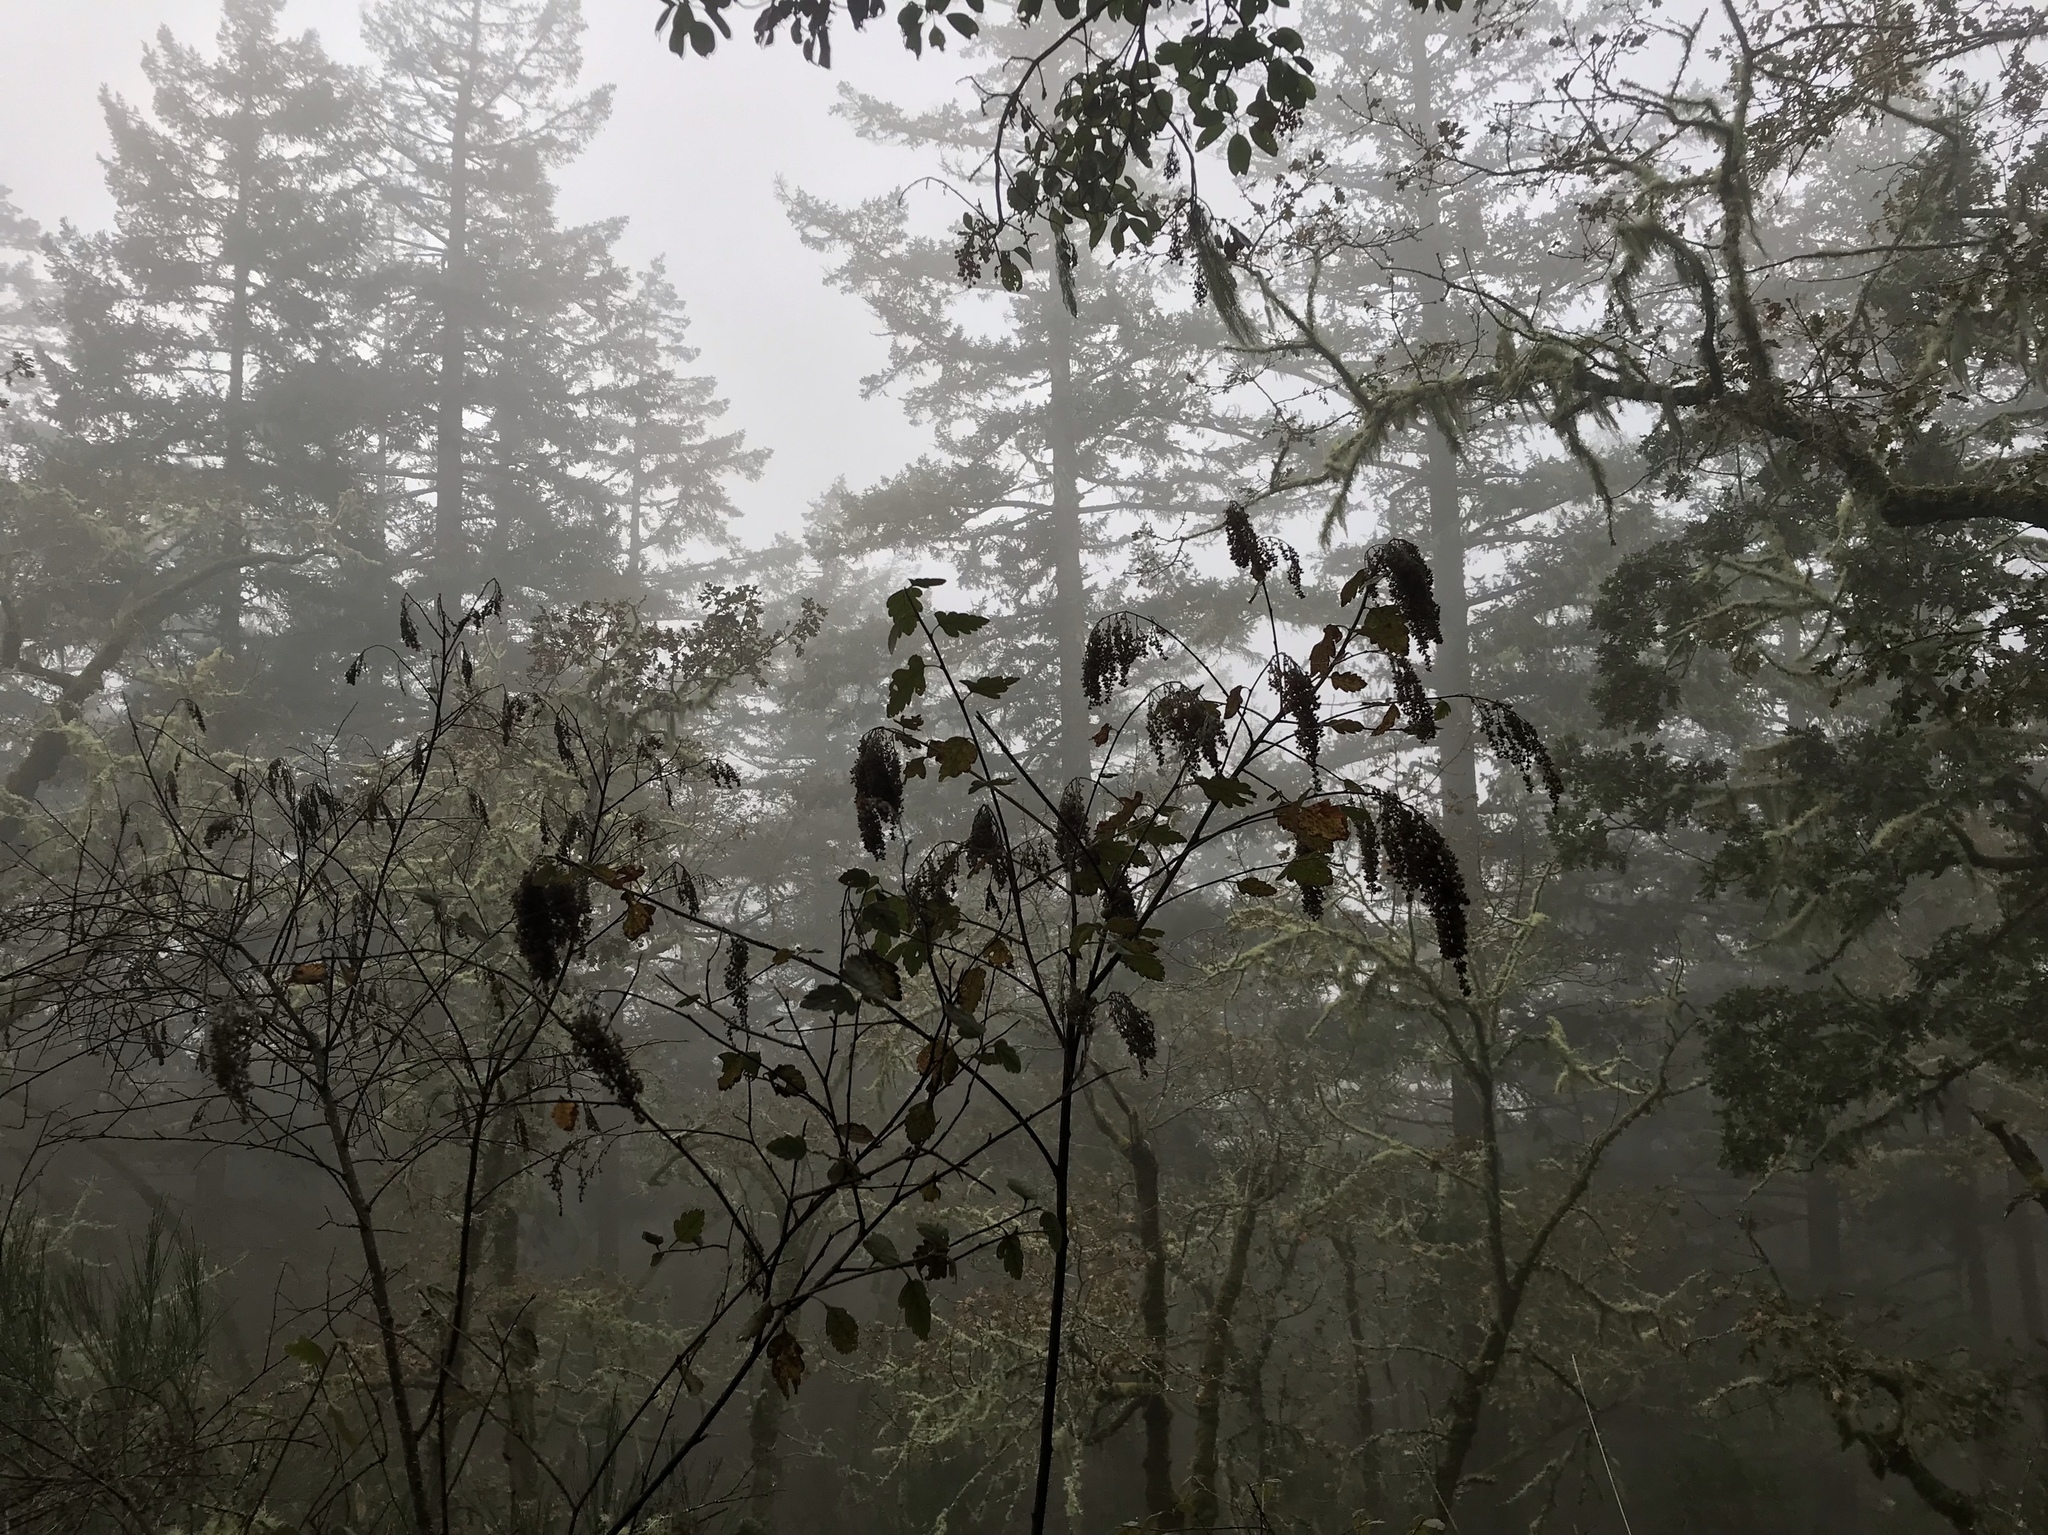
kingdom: Plantae
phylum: Tracheophyta
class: Magnoliopsida
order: Rosales
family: Rosaceae
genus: Holodiscus
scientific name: Holodiscus discolor
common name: Oceanspray
